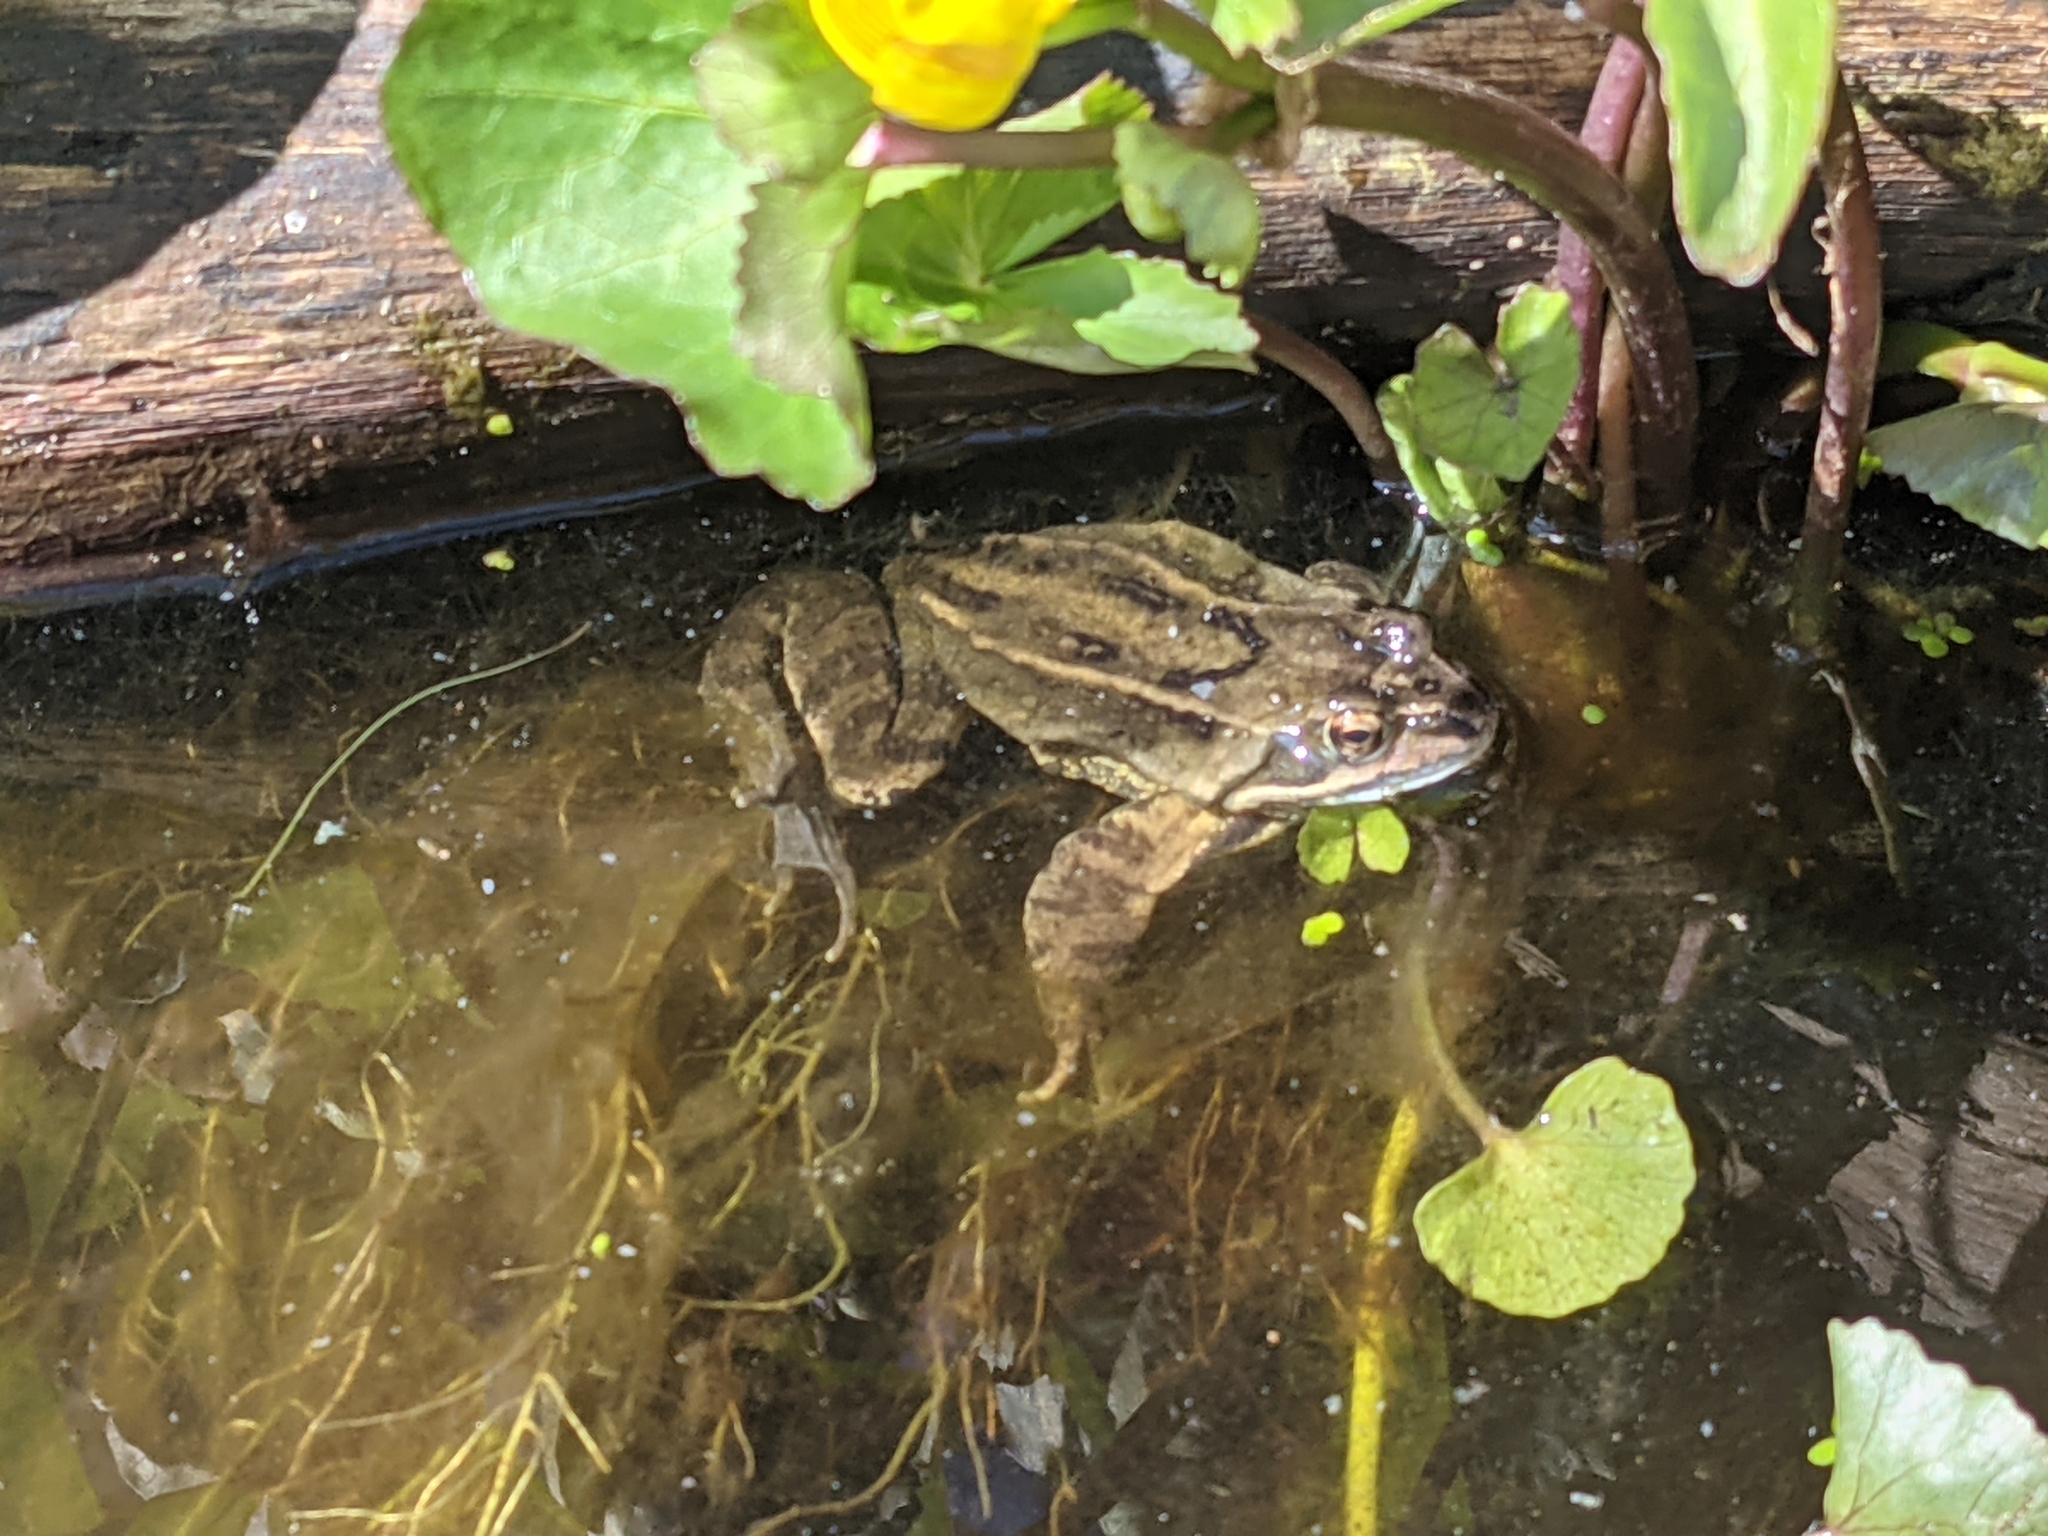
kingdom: Animalia
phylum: Chordata
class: Amphibia
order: Anura
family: Ranidae
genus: Rana
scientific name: Rana temporaria
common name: Common frog
